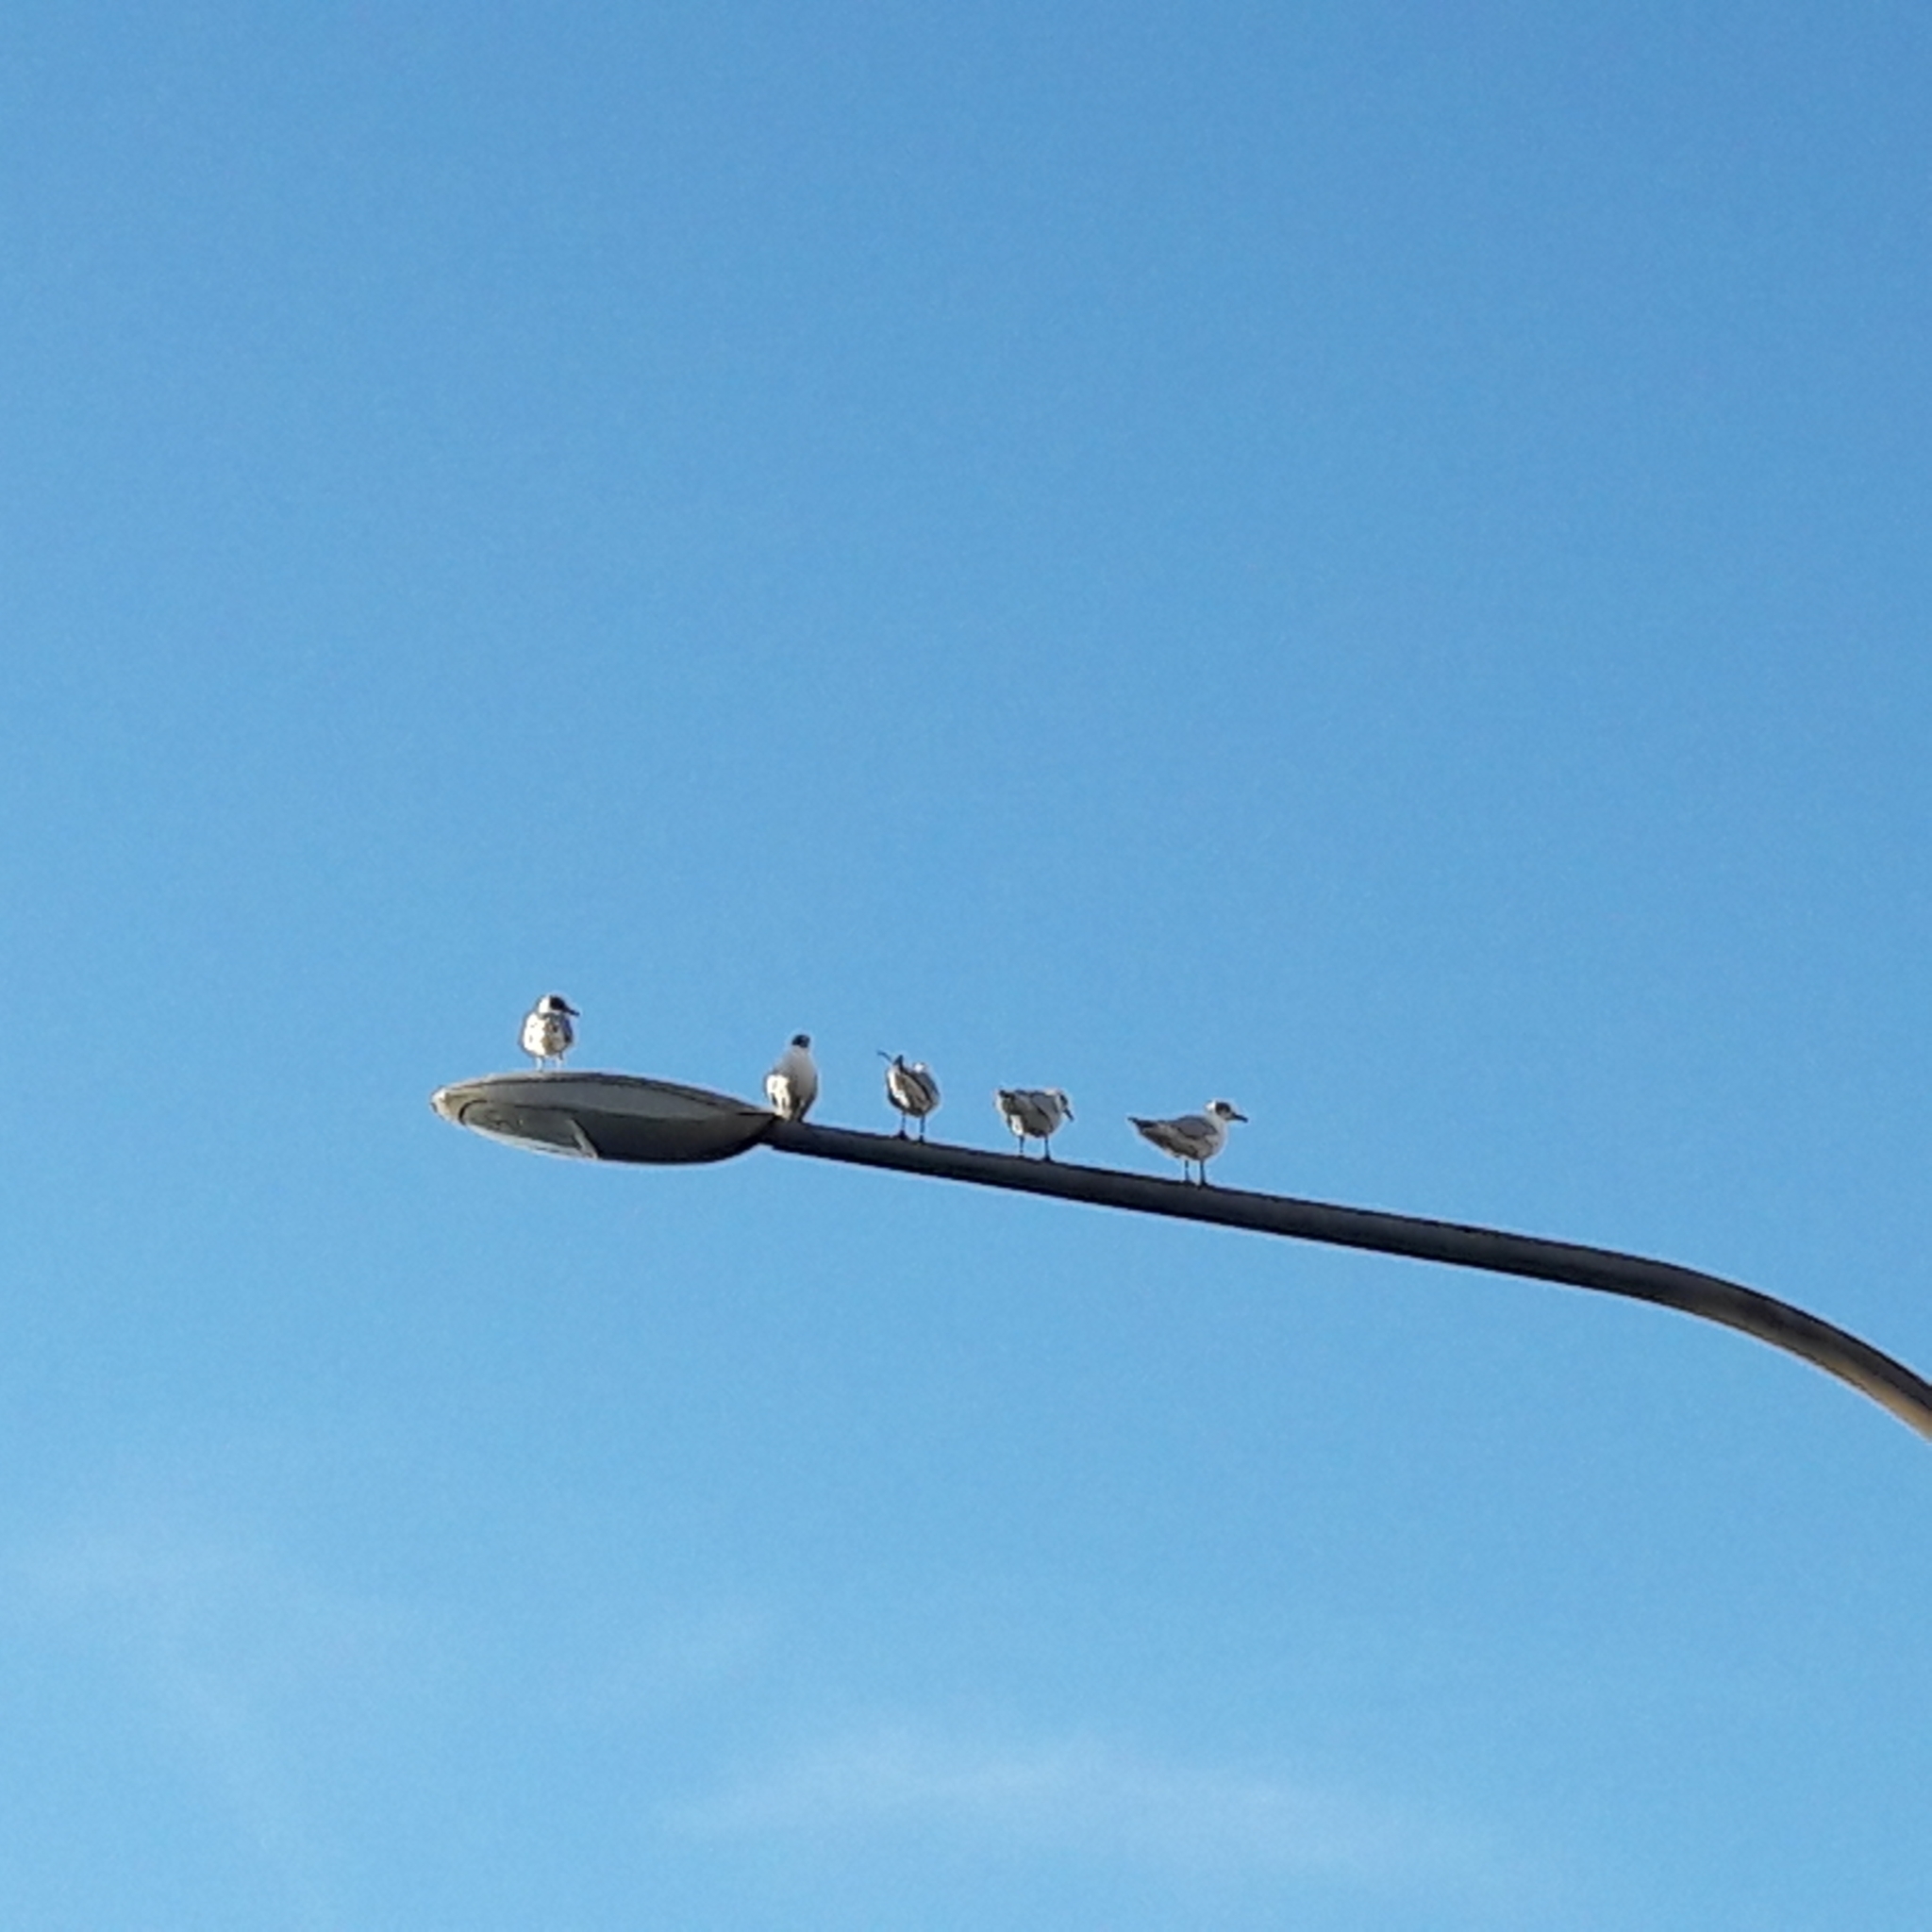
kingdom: Animalia
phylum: Chordata
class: Aves
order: Charadriiformes
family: Laridae
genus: Chroicocephalus
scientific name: Chroicocephalus ridibundus
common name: Black-headed gull
